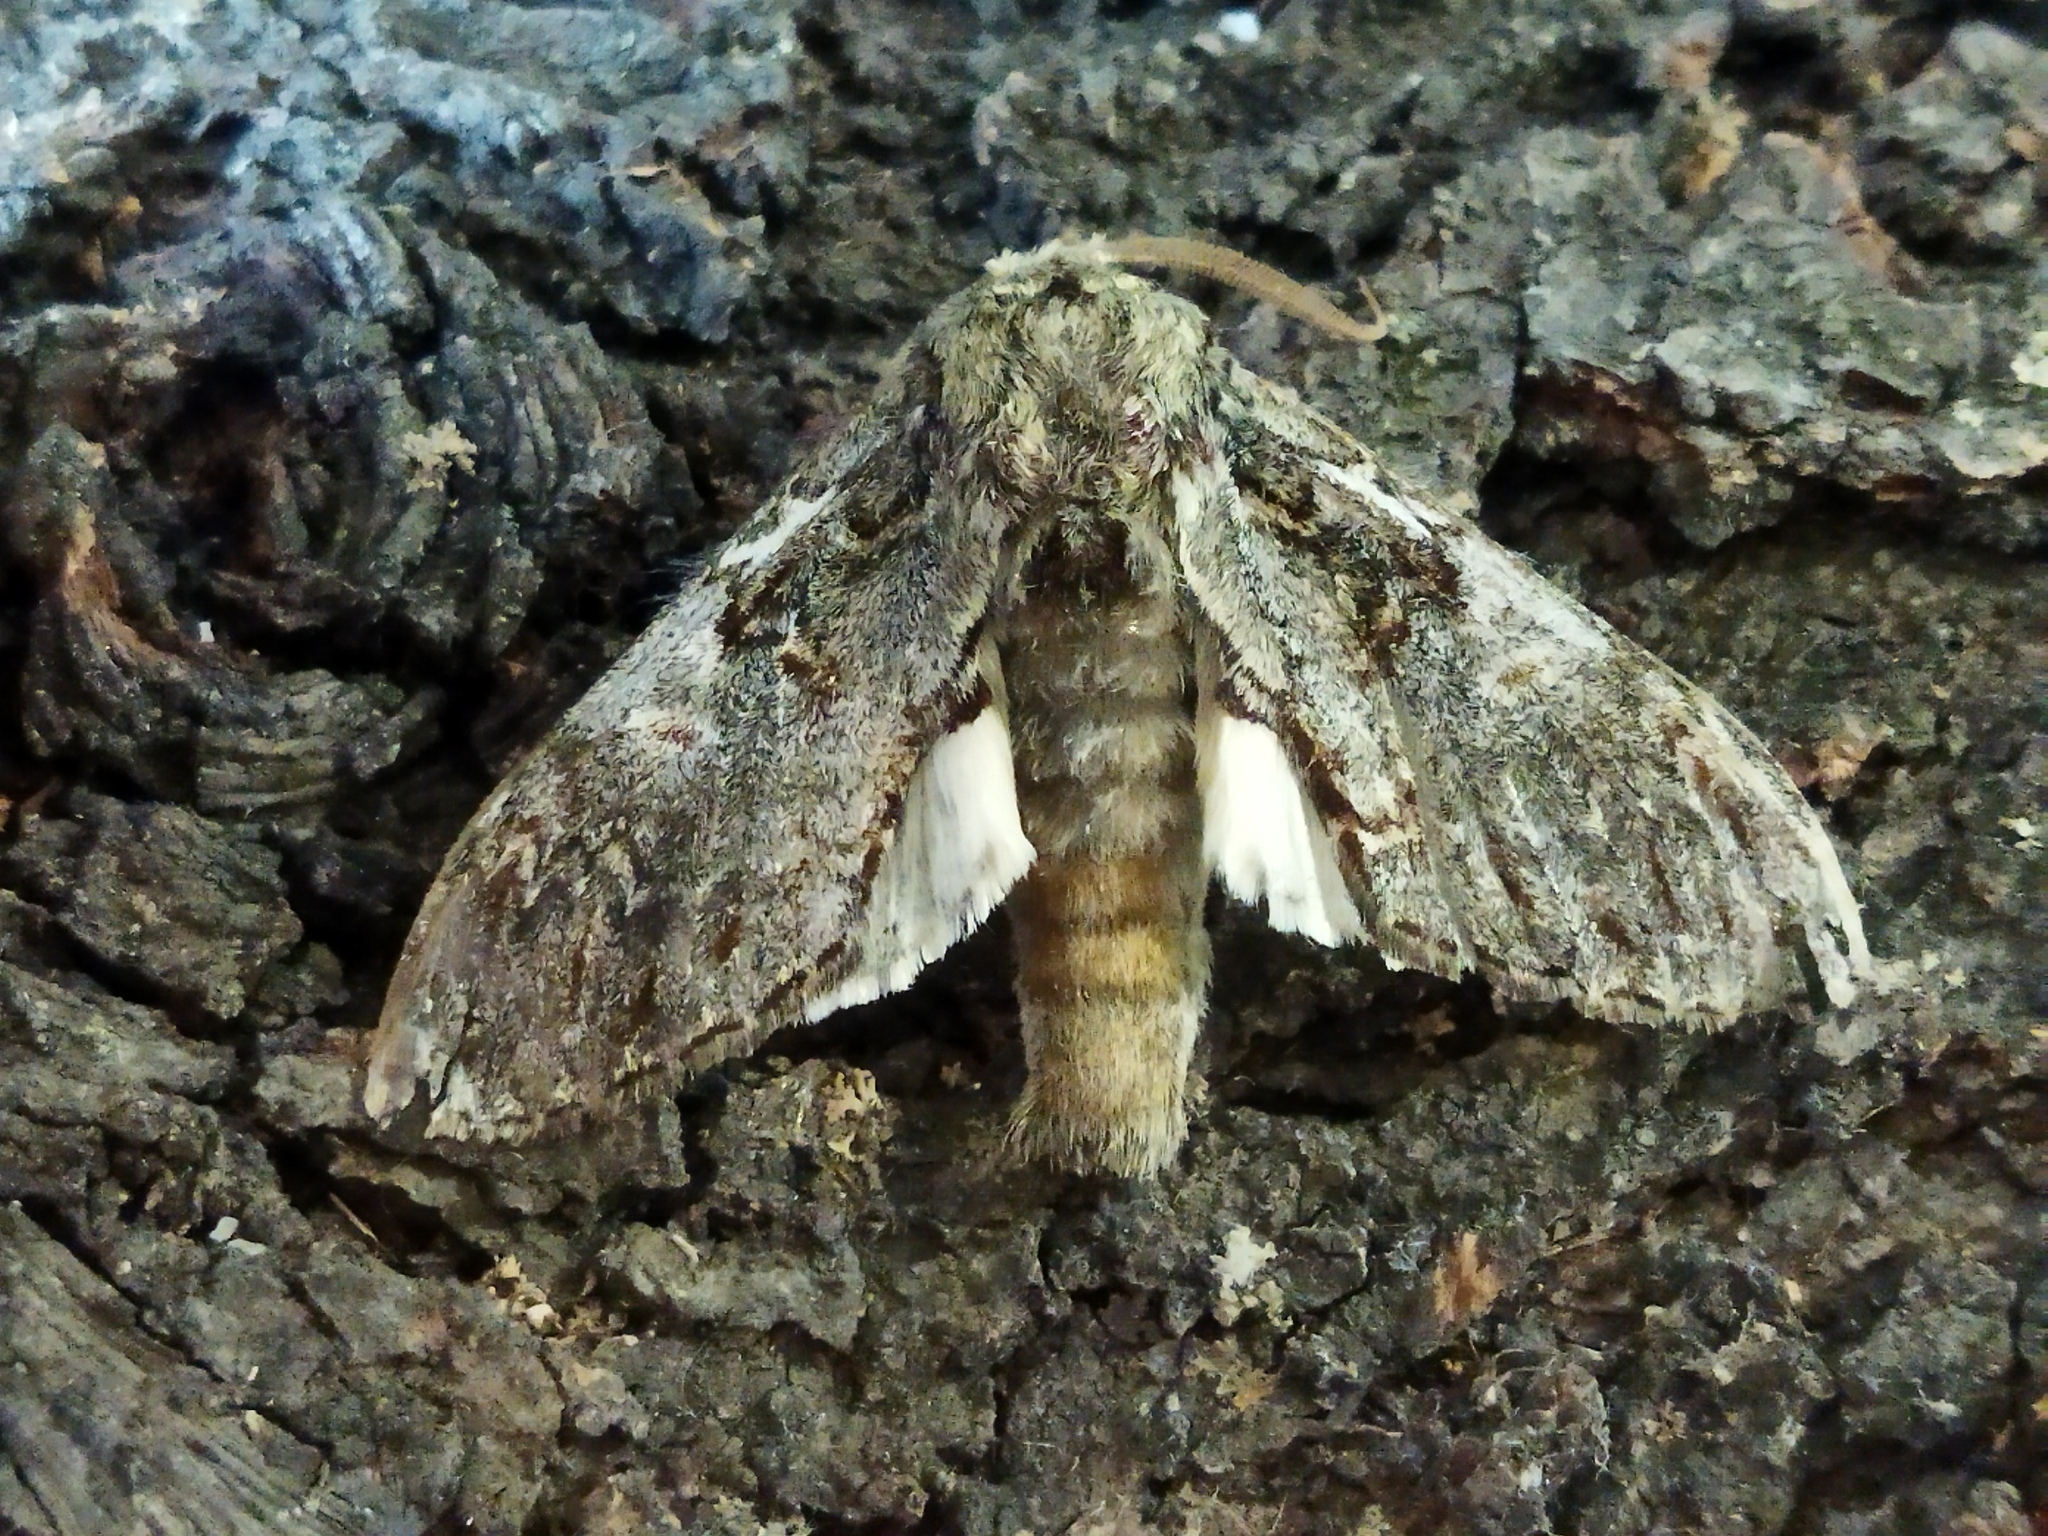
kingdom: Animalia
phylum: Arthropoda
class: Insecta
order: Lepidoptera
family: Notodontidae
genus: Peridea
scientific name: Peridea korbi
